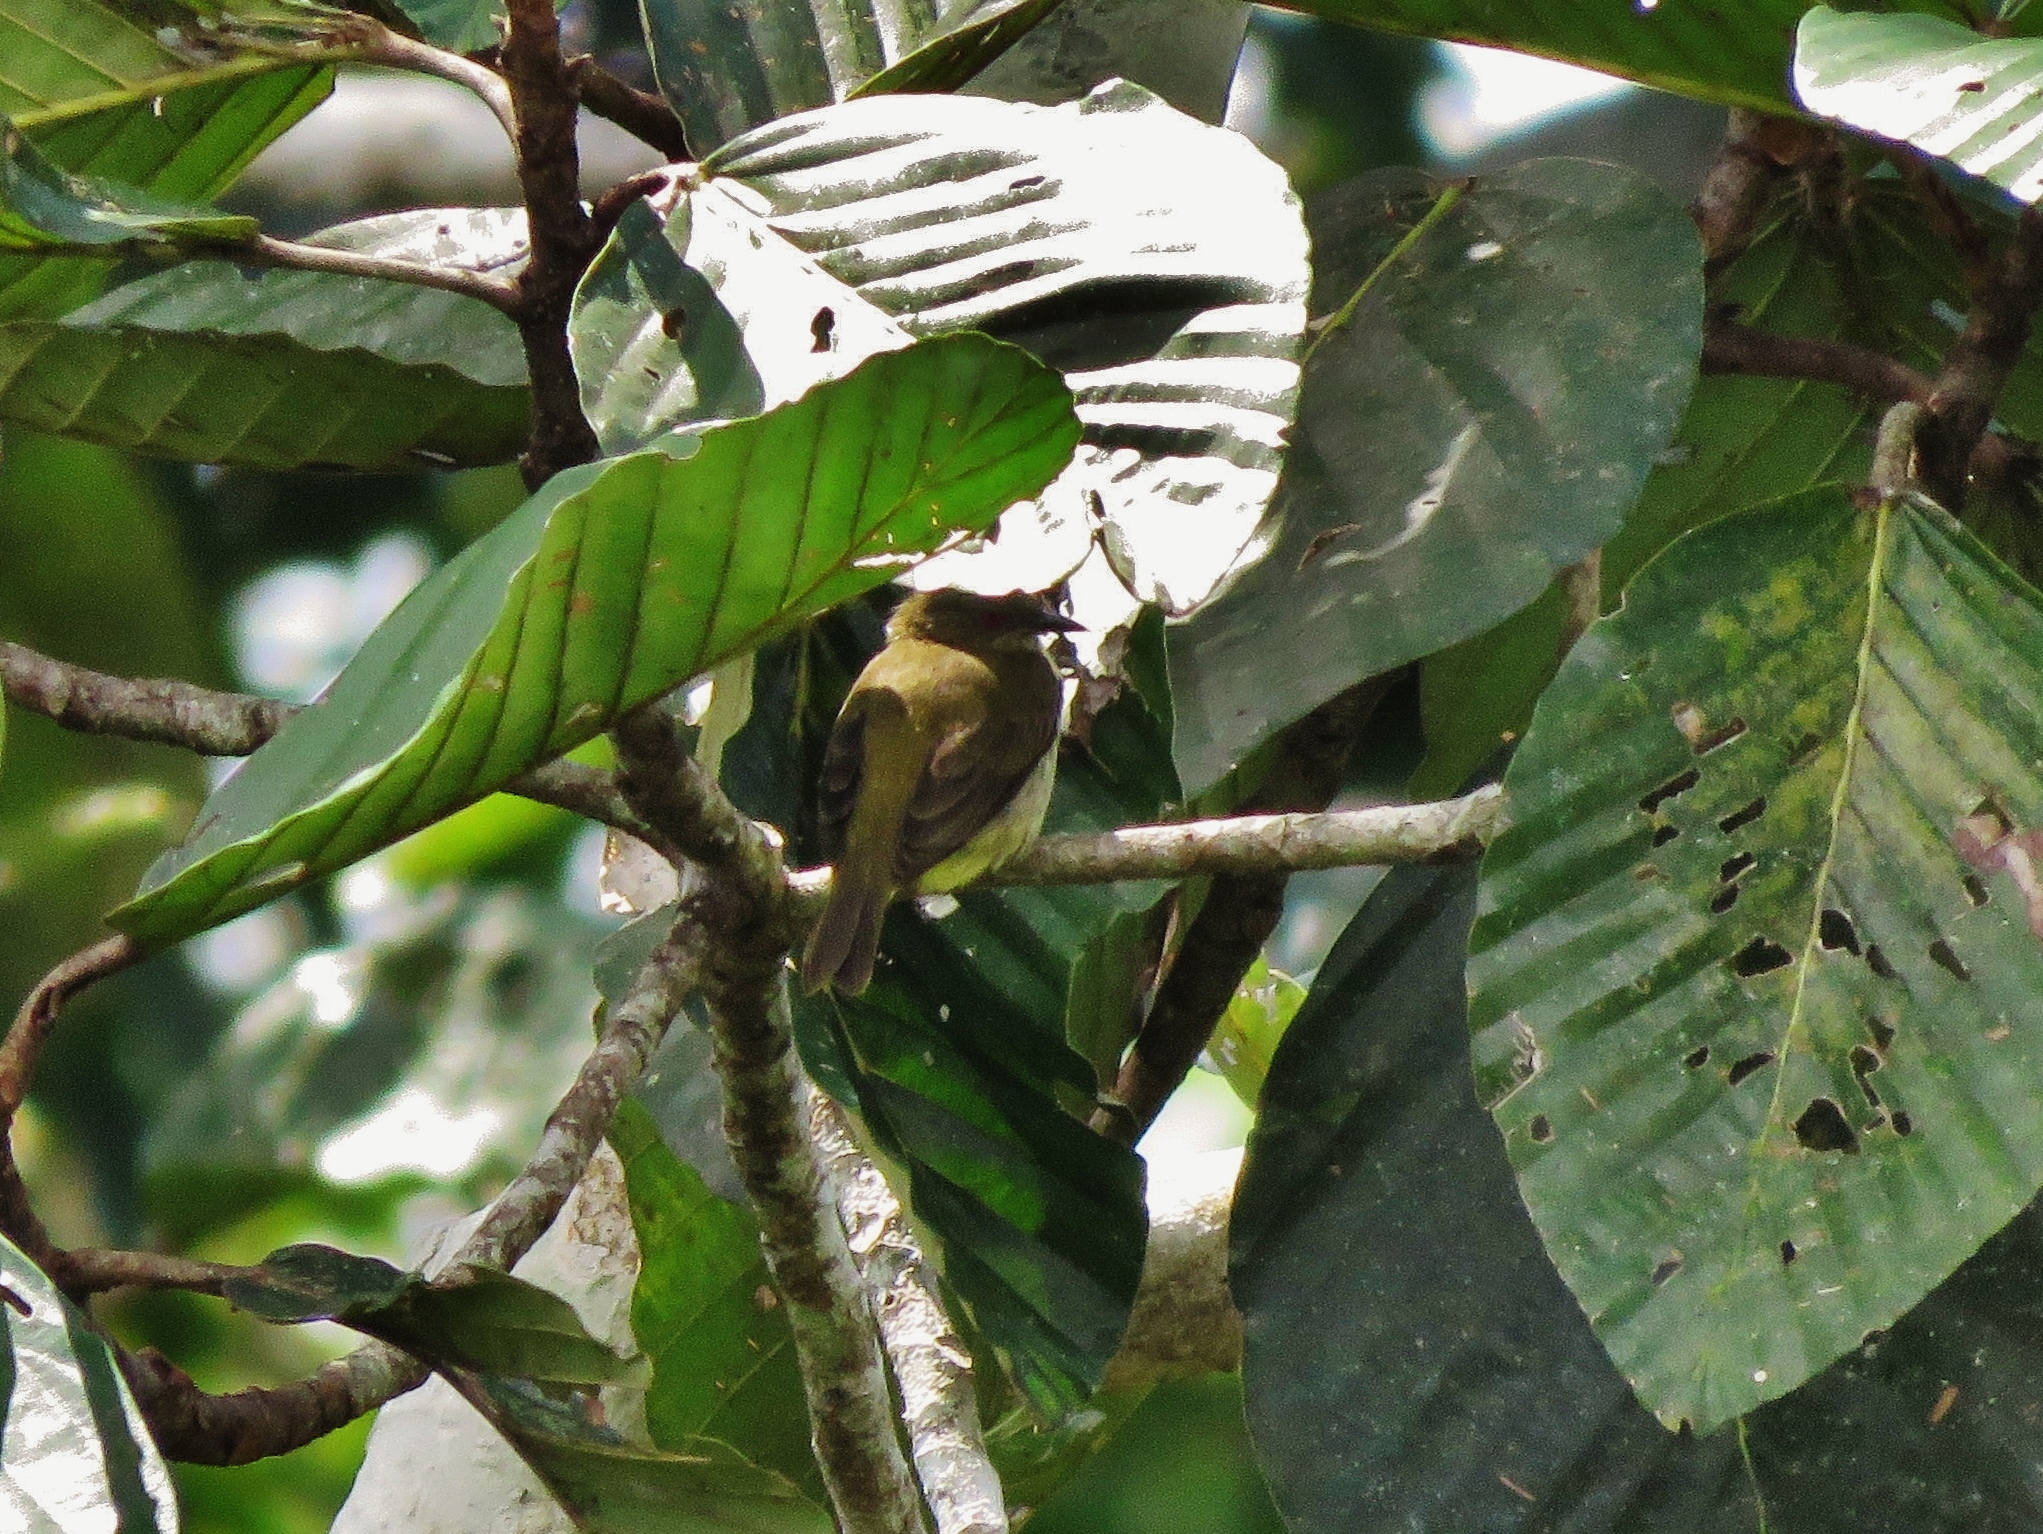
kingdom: Animalia
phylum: Chordata
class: Aves
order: Passeriformes
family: Thraupidae
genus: Dacnis
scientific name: Dacnis flaviventer
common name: Yellow-bellied dacnis
